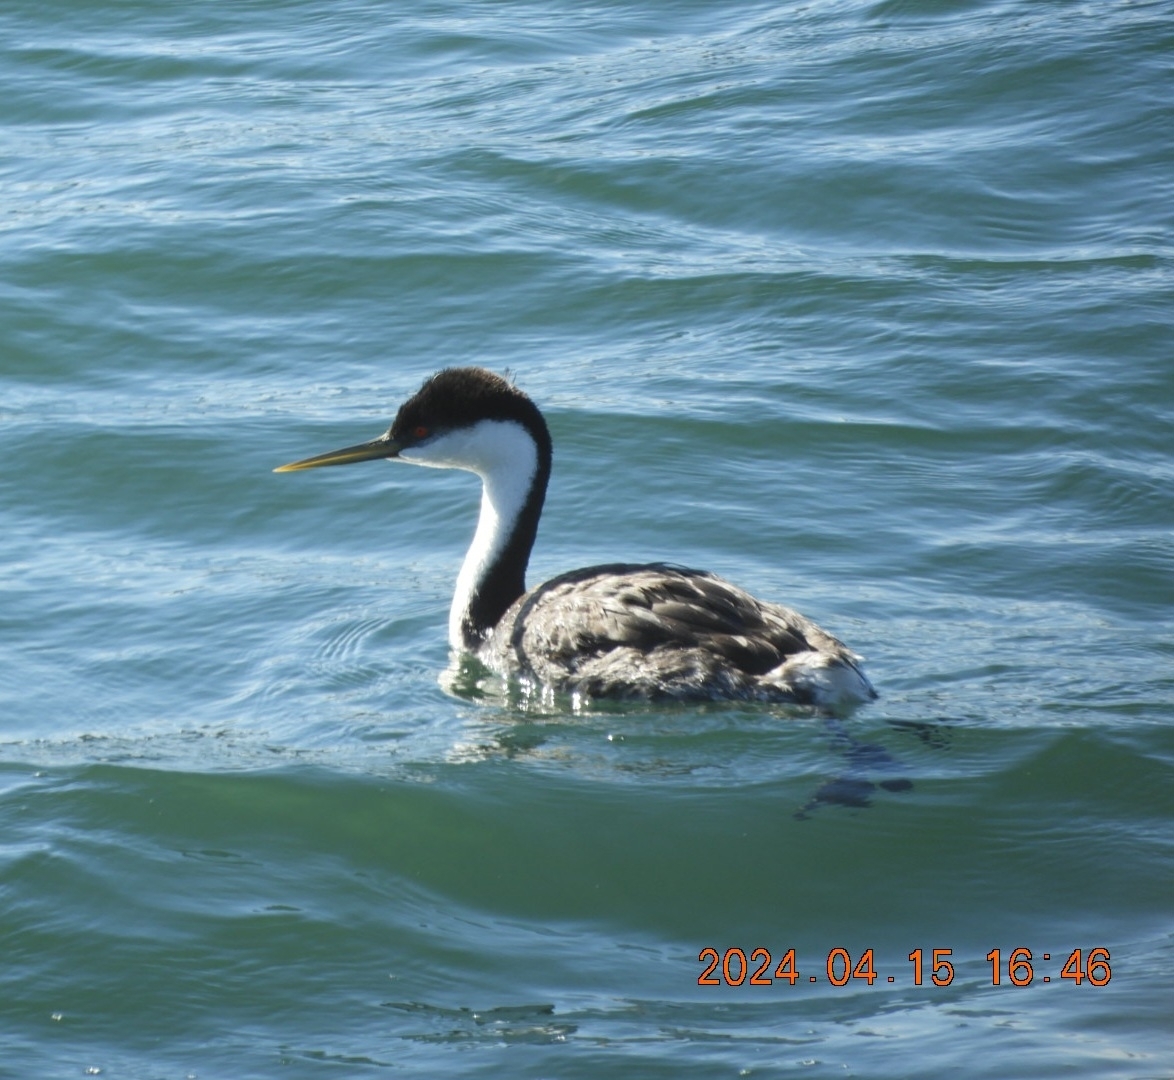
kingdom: Animalia
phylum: Chordata
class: Aves
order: Podicipediformes
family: Podicipedidae
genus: Aechmophorus
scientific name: Aechmophorus occidentalis
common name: Western grebe
